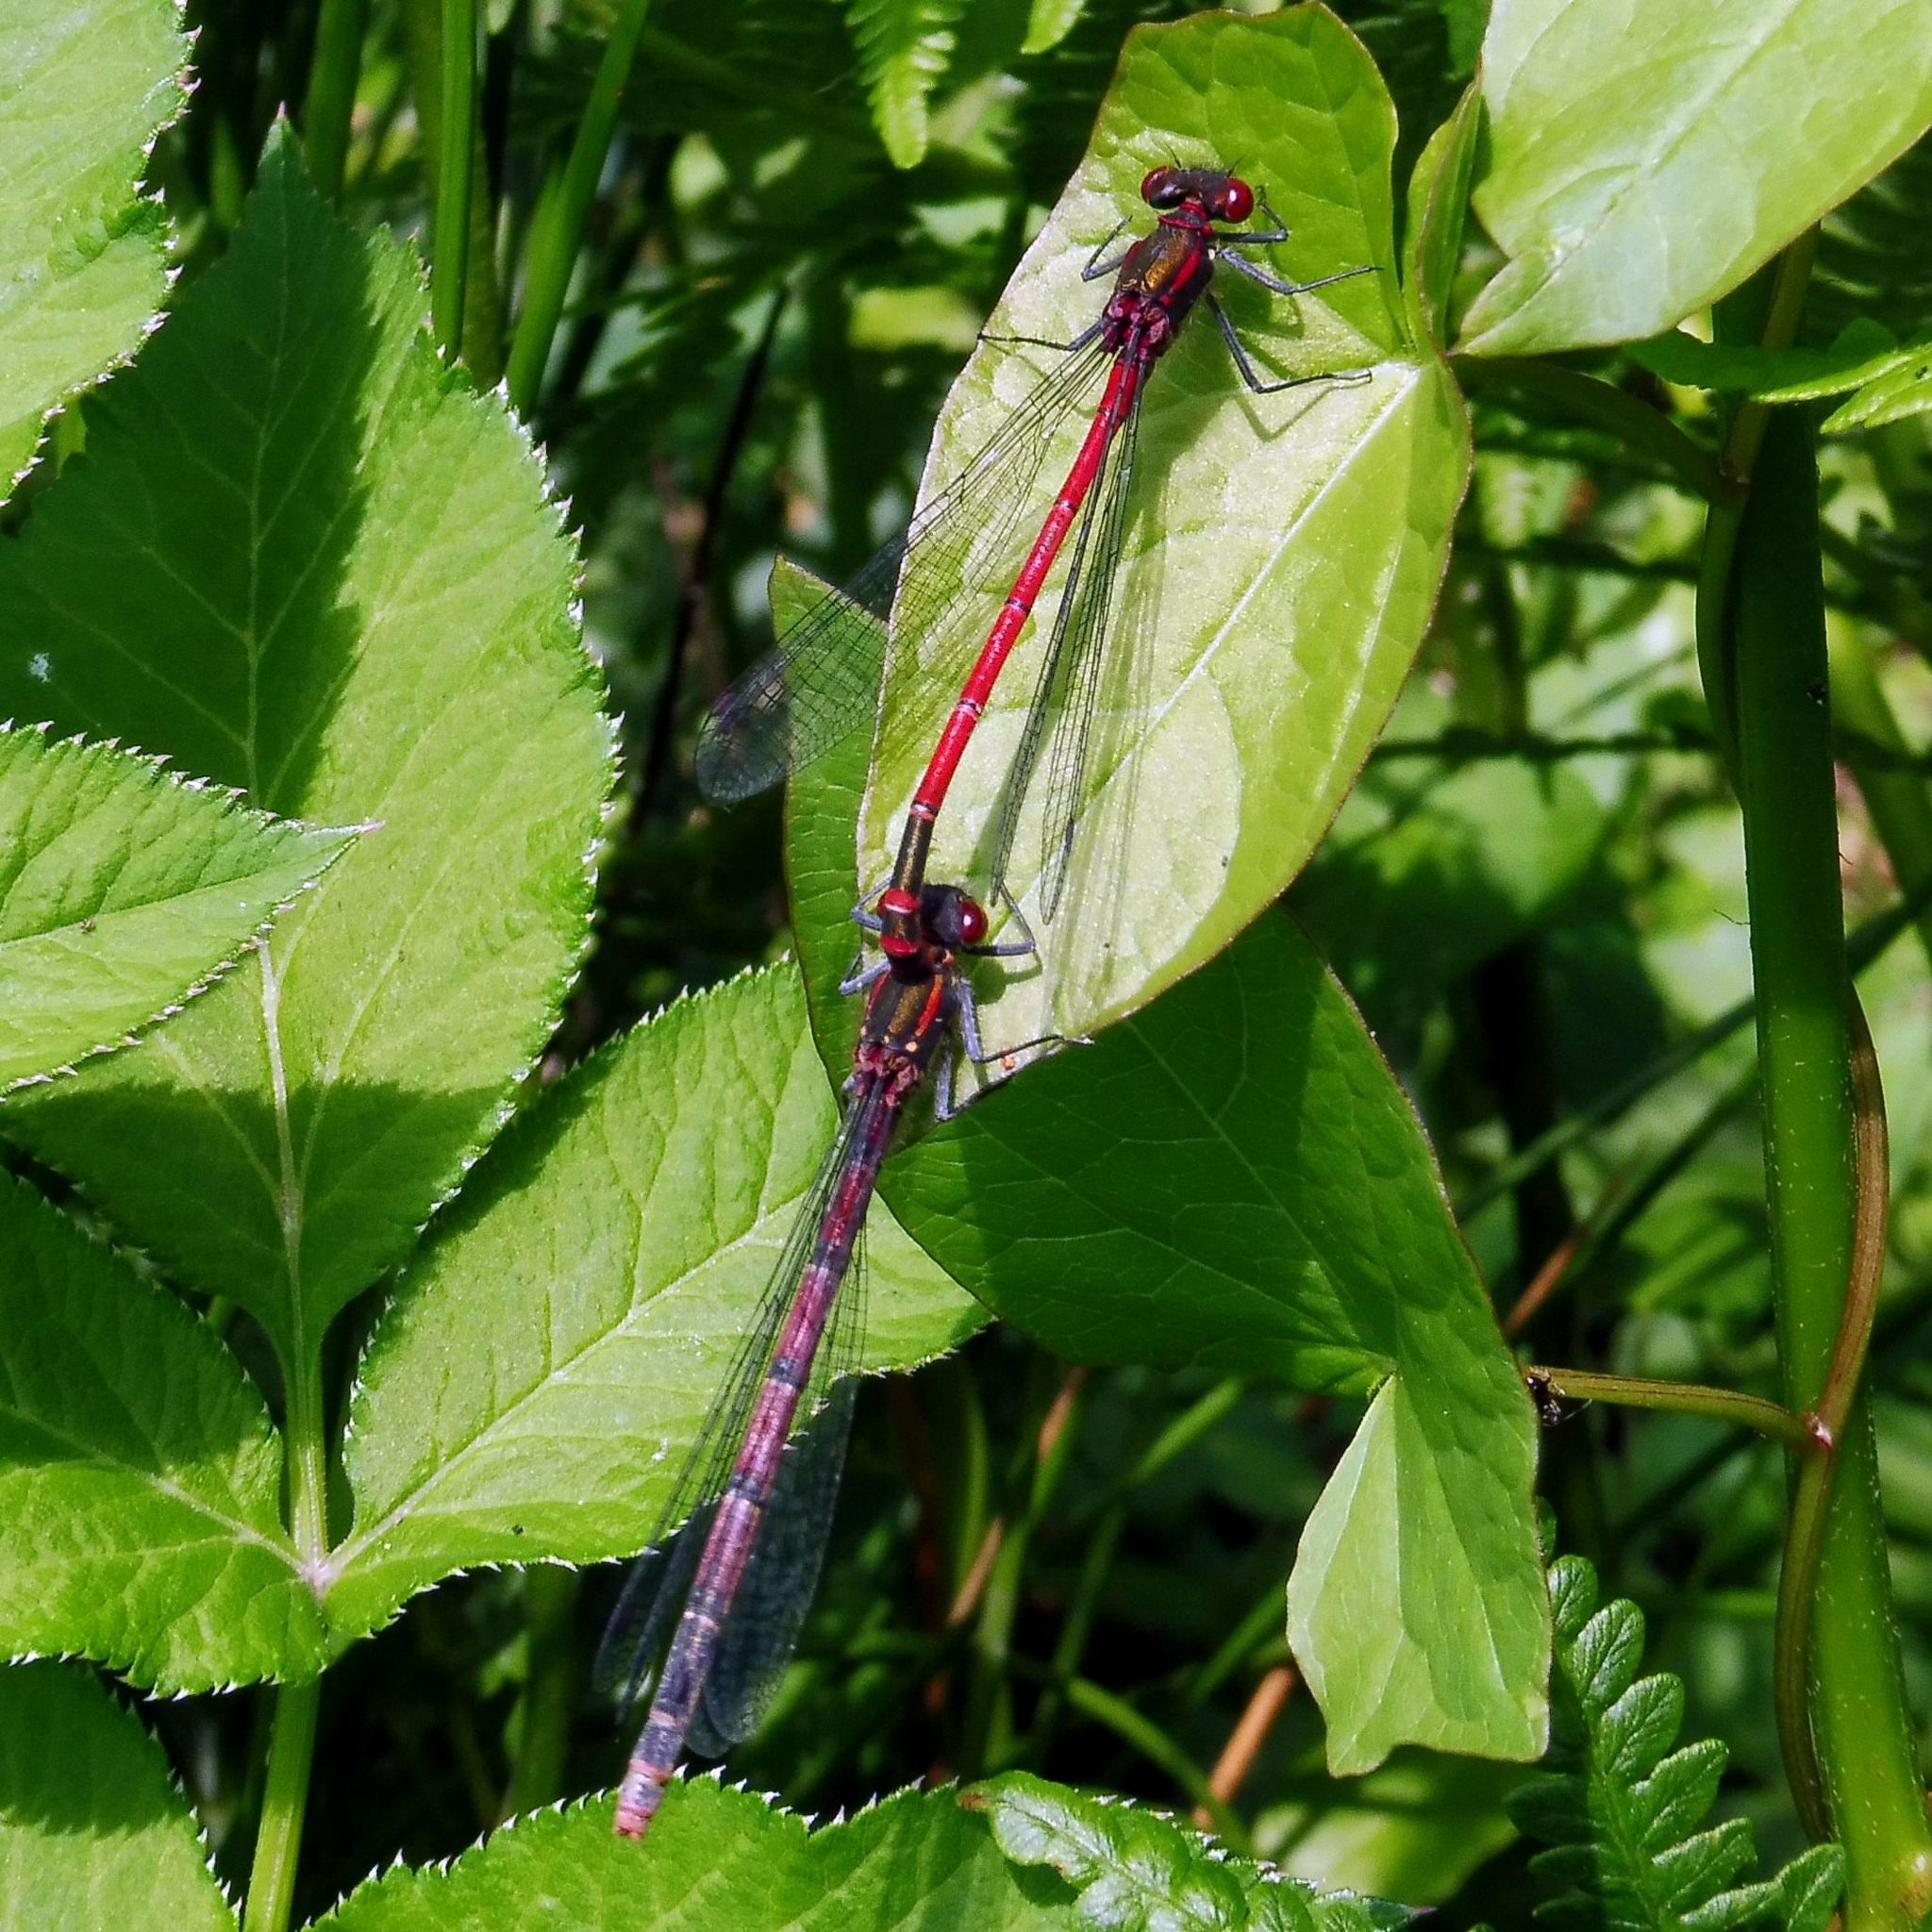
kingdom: Animalia
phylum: Arthropoda
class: Insecta
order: Odonata
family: Coenagrionidae
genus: Pyrrhosoma
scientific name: Pyrrhosoma nymphula
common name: Large red damsel
